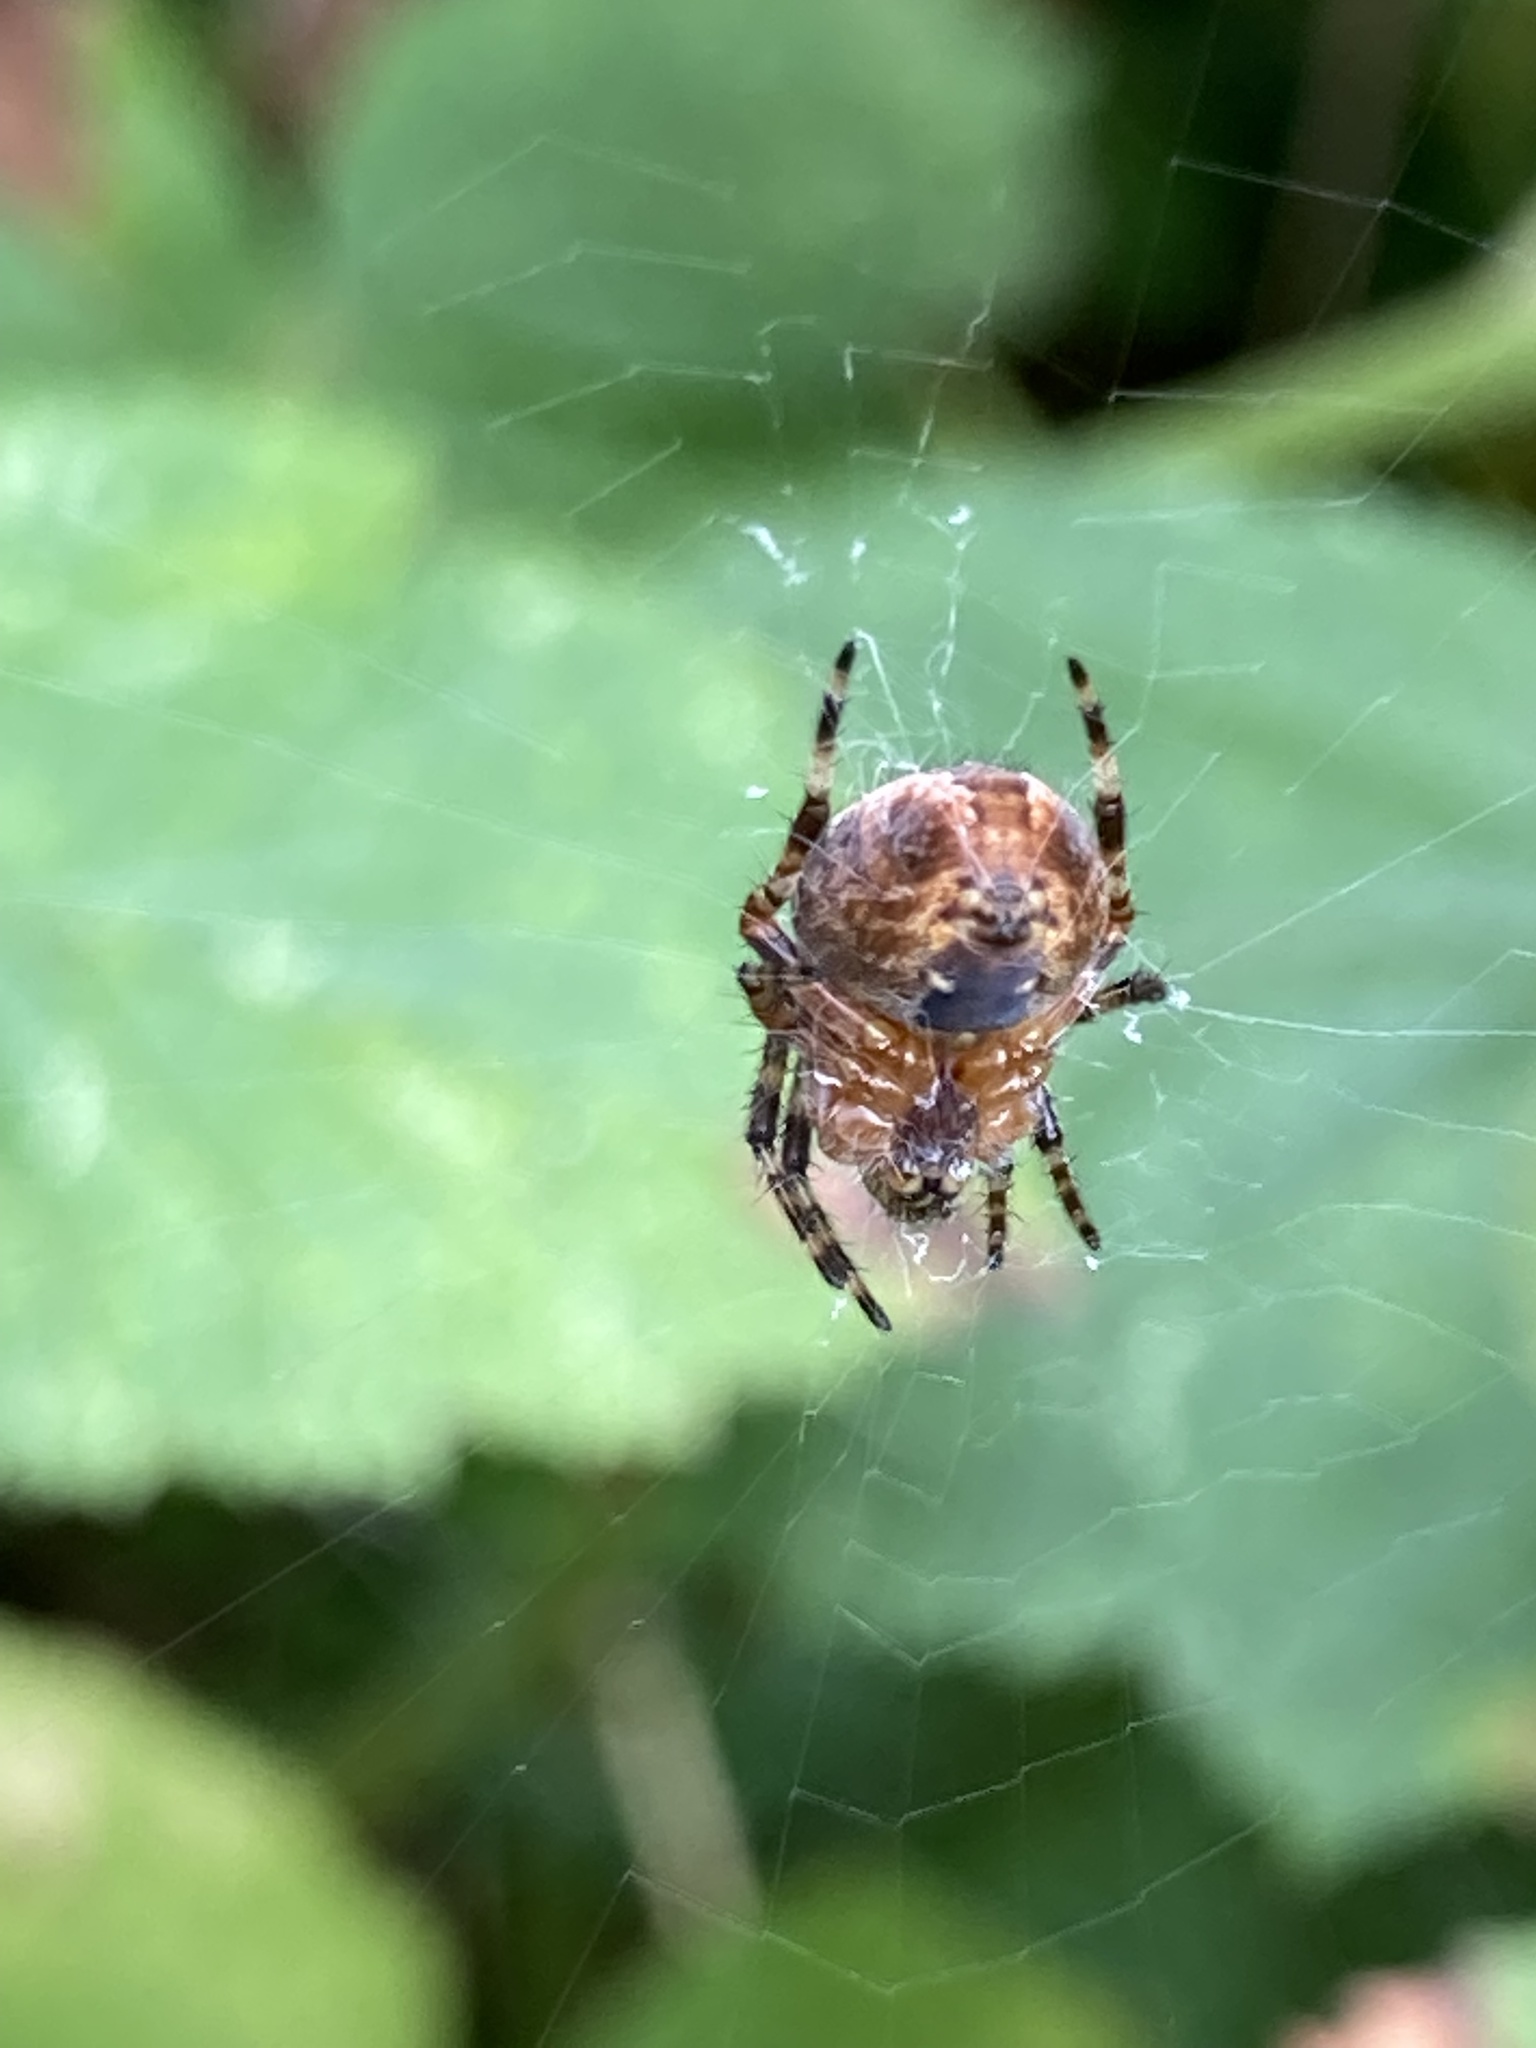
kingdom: Animalia
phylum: Arthropoda
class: Arachnida
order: Araneae
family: Araneidae
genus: Araneus
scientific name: Araneus diadematus
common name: Cross orbweaver
